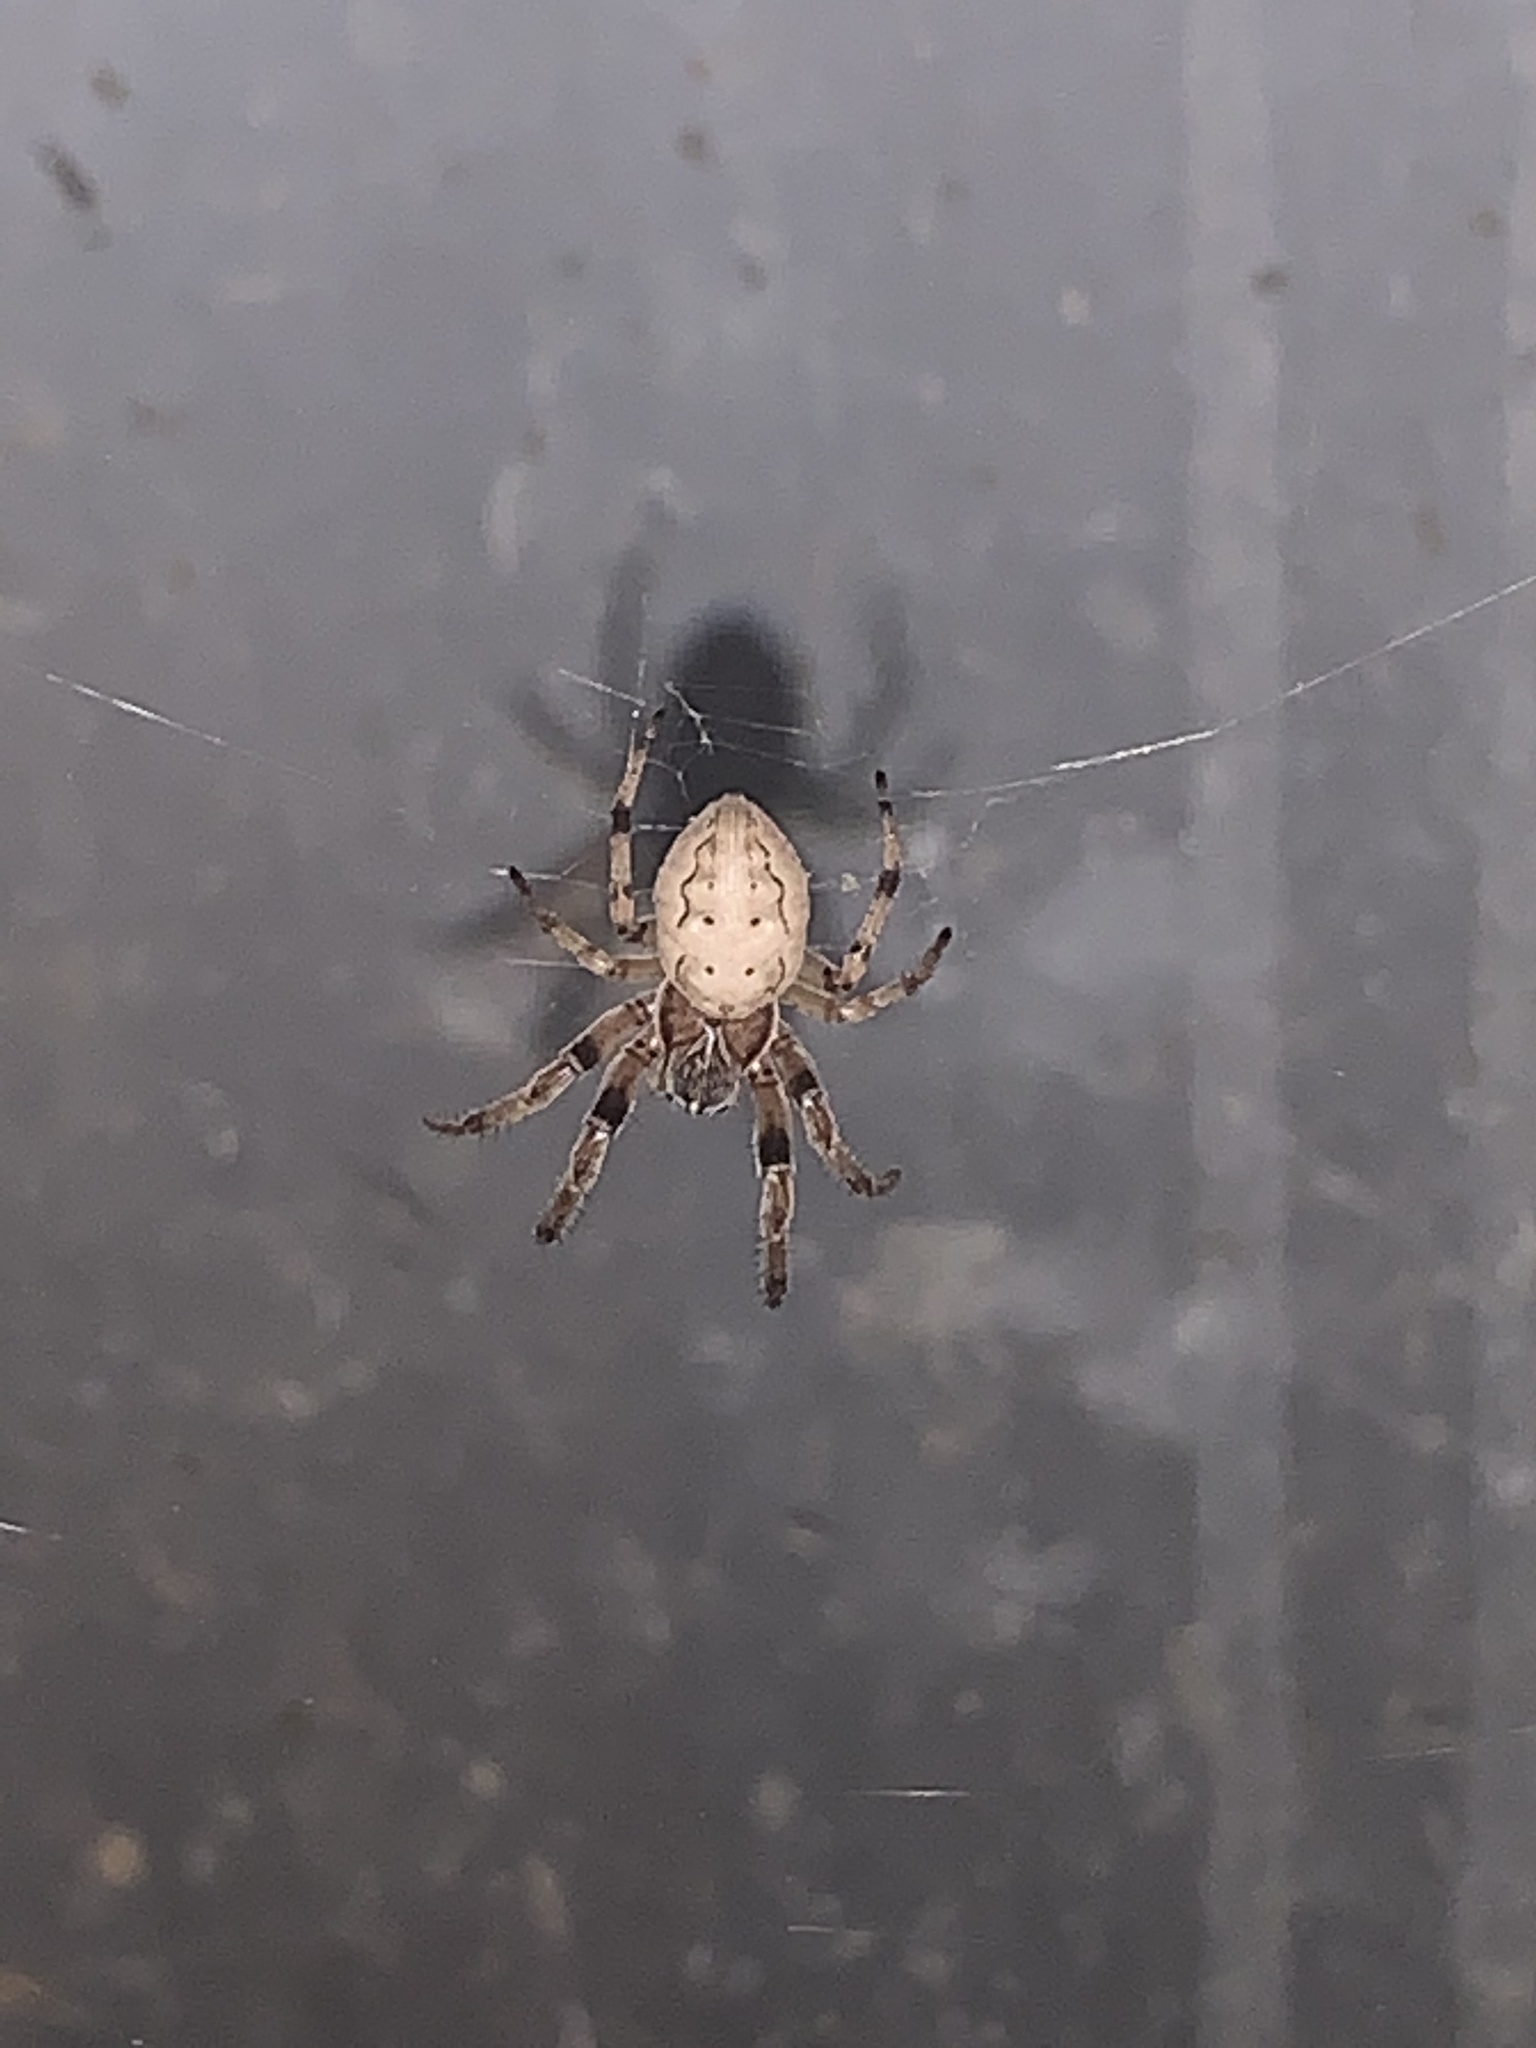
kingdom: Animalia
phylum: Arthropoda
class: Arachnida
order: Araneae
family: Araneidae
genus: Larinioides
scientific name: Larinioides cornutus
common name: Furrow orbweaver
